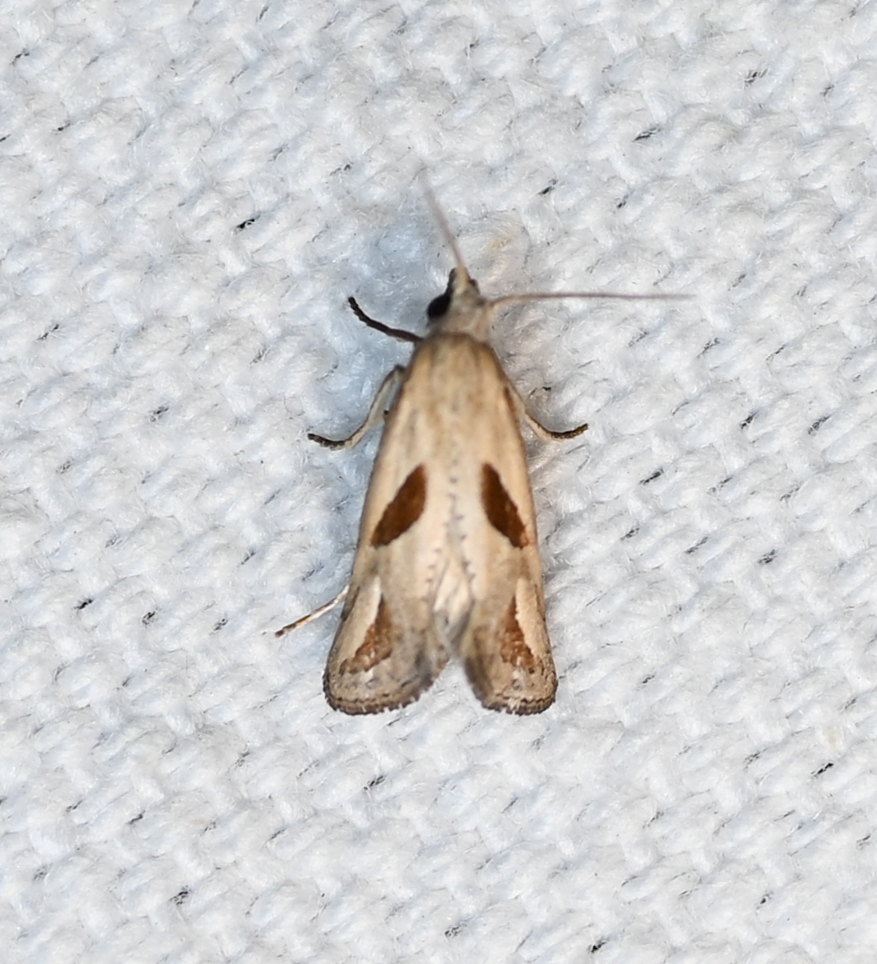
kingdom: Animalia
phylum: Arthropoda
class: Insecta
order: Lepidoptera
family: Tortricidae
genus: Eugnosta
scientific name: Eugnosta bimaculana
